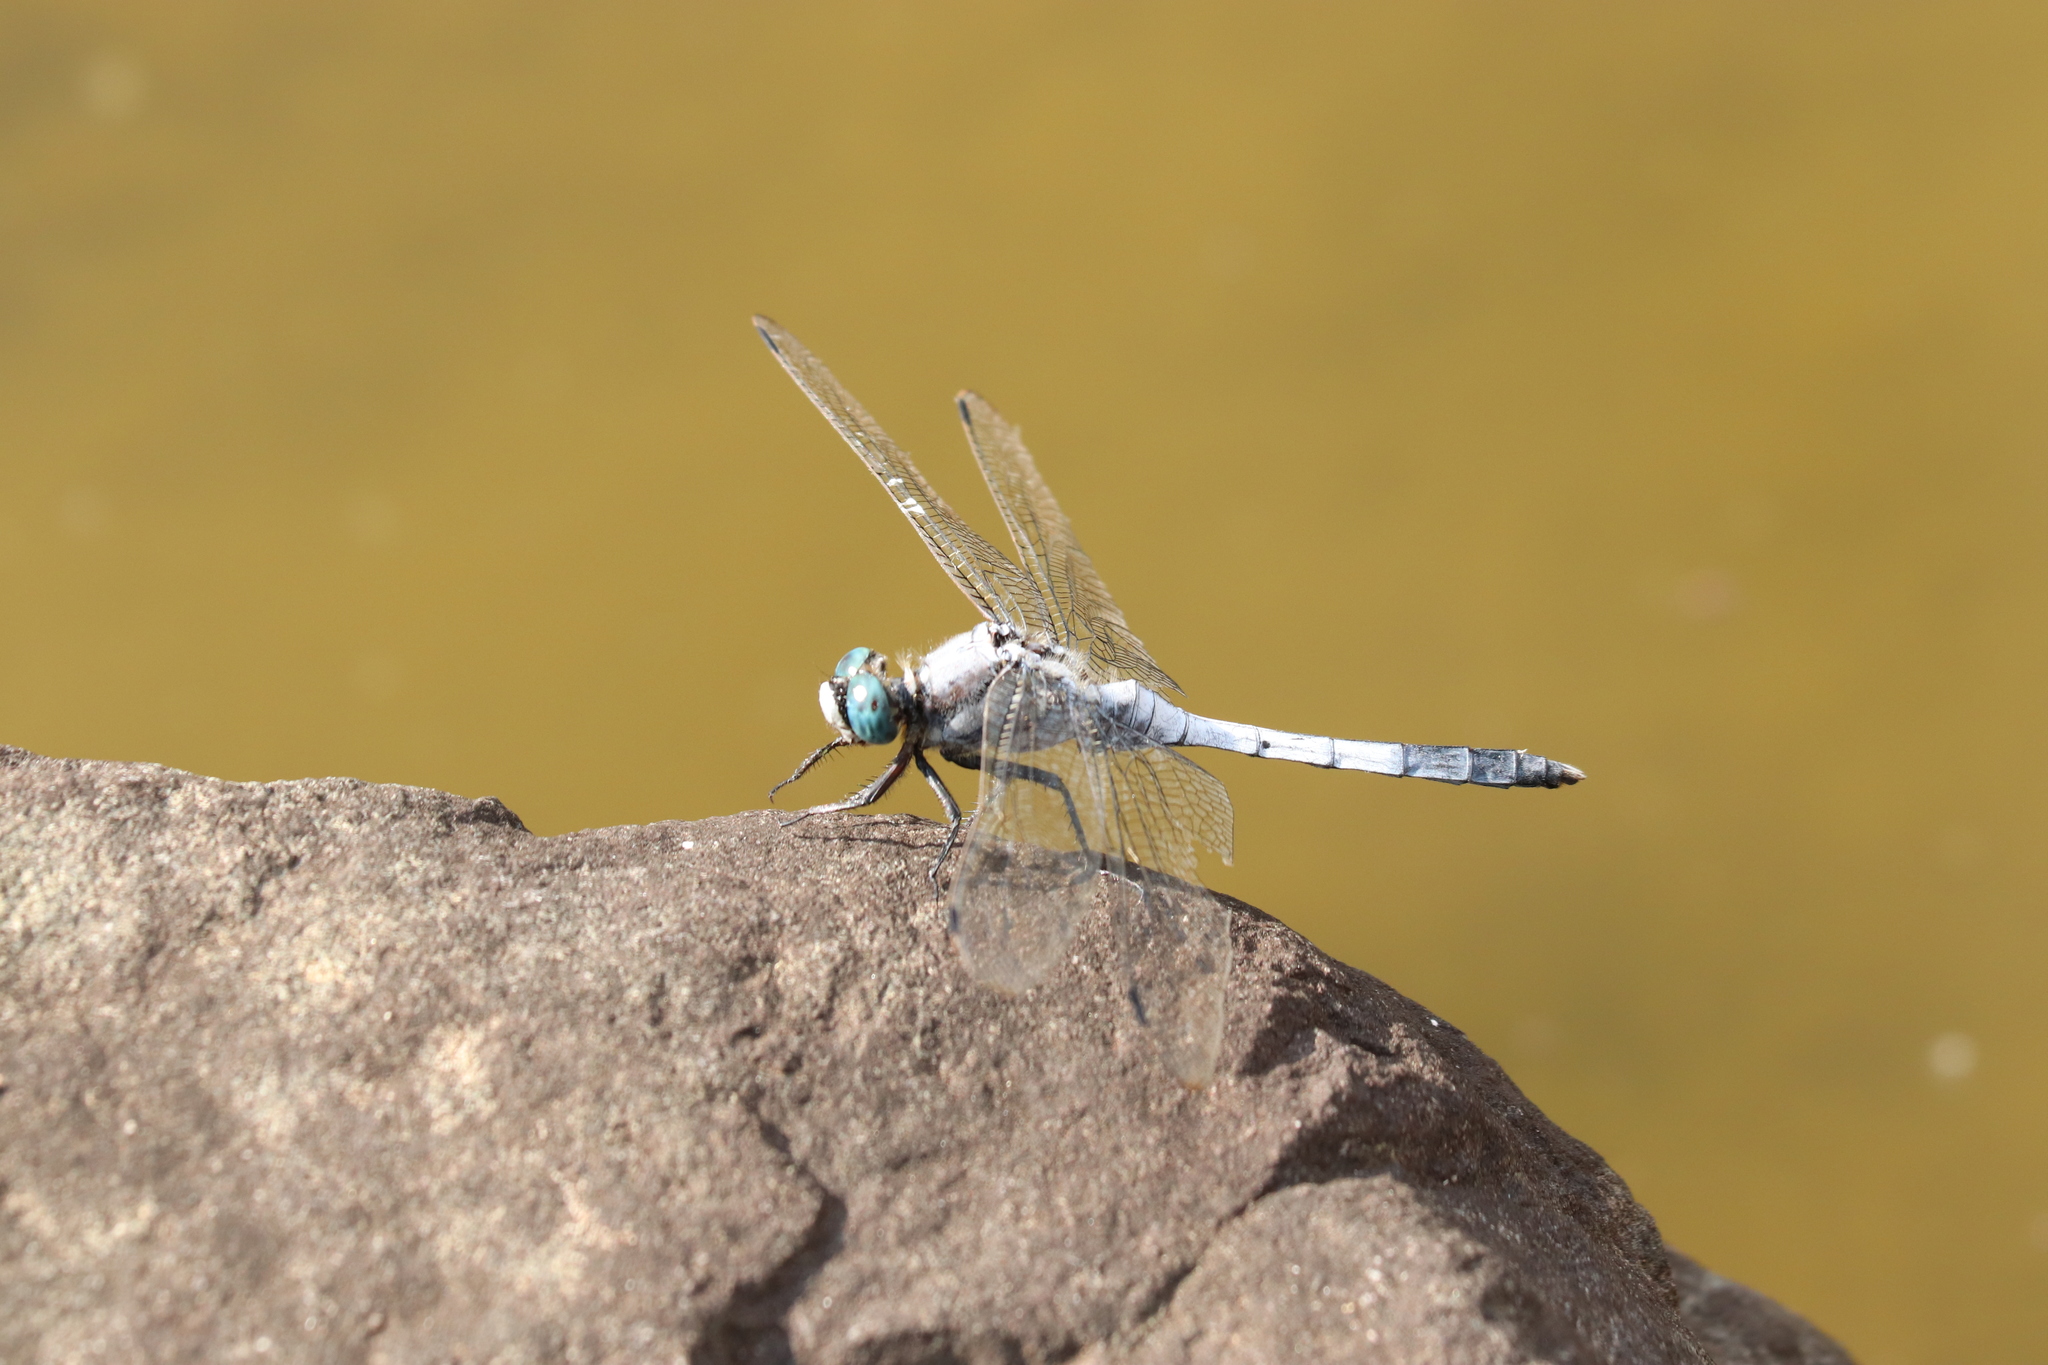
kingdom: Animalia
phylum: Arthropoda
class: Insecta
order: Odonata
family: Libellulidae
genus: Orthetrum
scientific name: Orthetrum albistylum
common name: White-tailed skimmer
